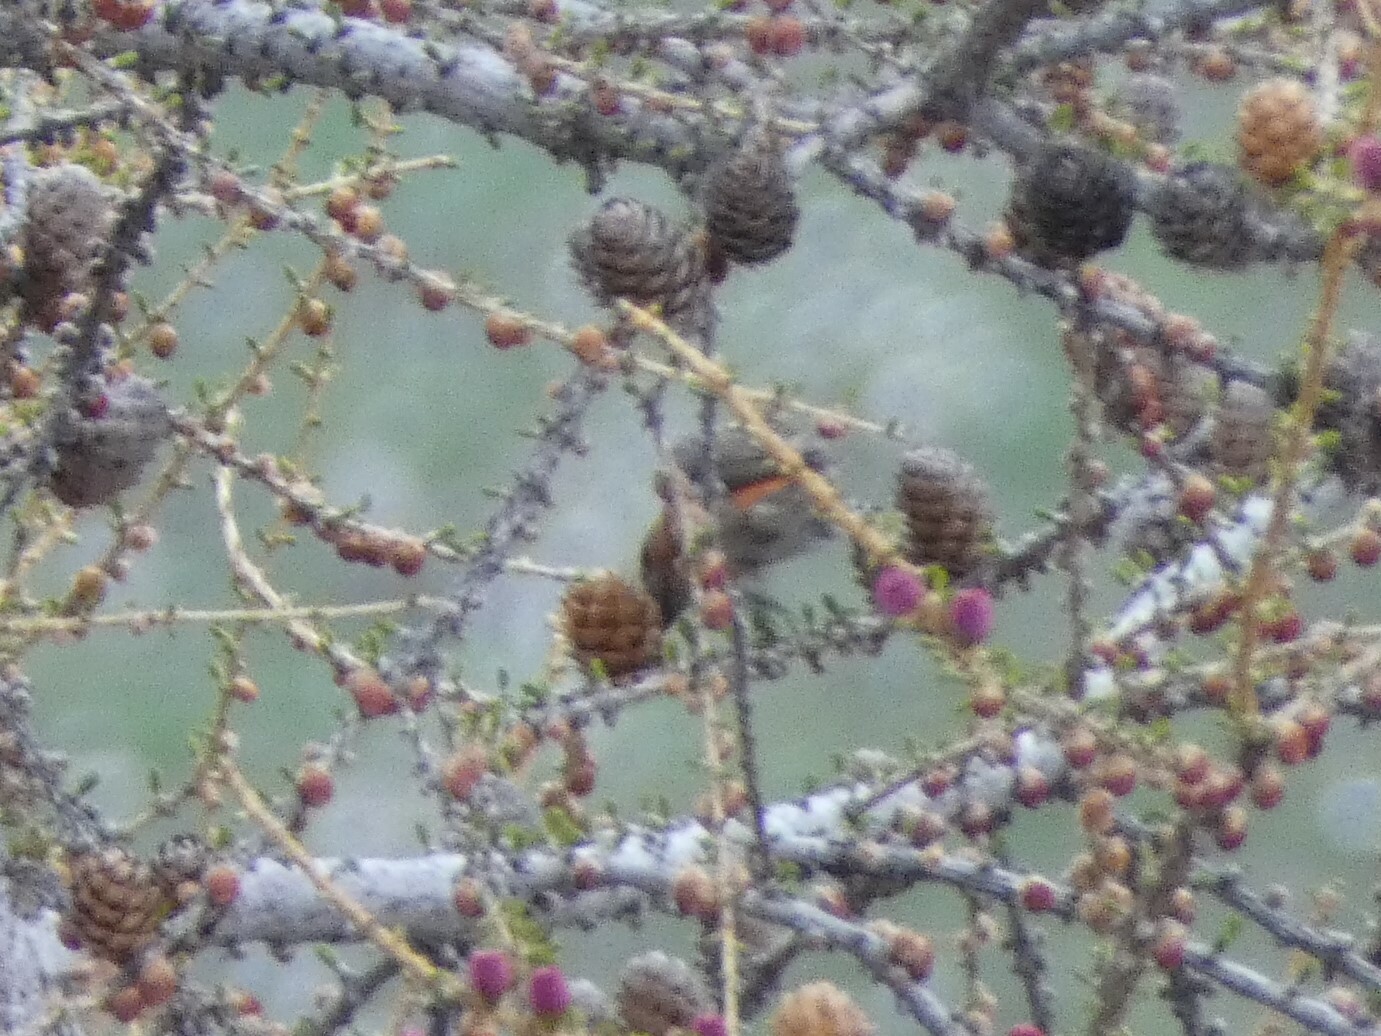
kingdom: Animalia
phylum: Chordata
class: Aves
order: Passeriformes
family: Fringillidae
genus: Loxia
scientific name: Loxia curvirostra
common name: Red crossbill
